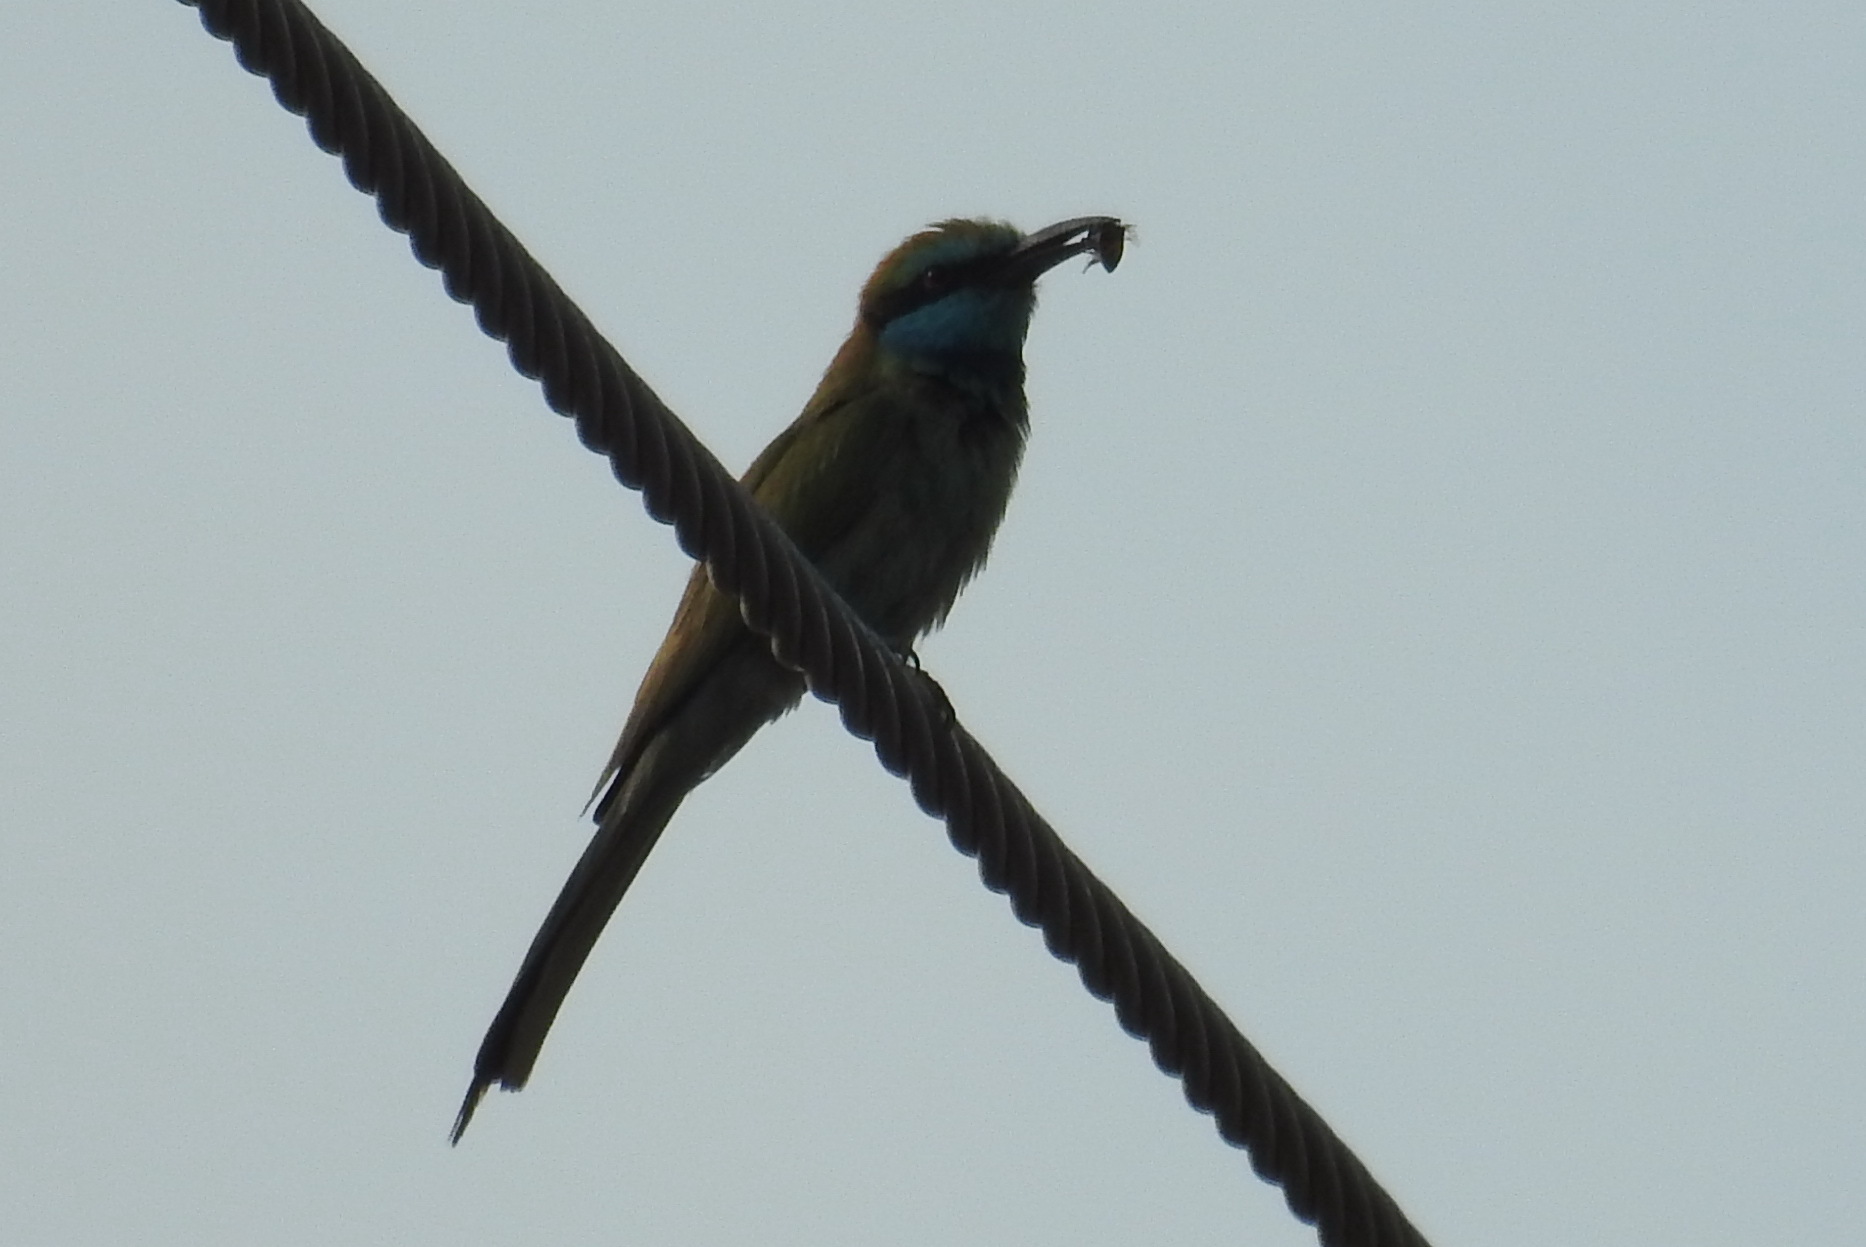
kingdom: Animalia
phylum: Chordata
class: Aves
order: Coraciiformes
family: Meropidae
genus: Merops
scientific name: Merops cyanophrys
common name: Arabian green bee-eater
